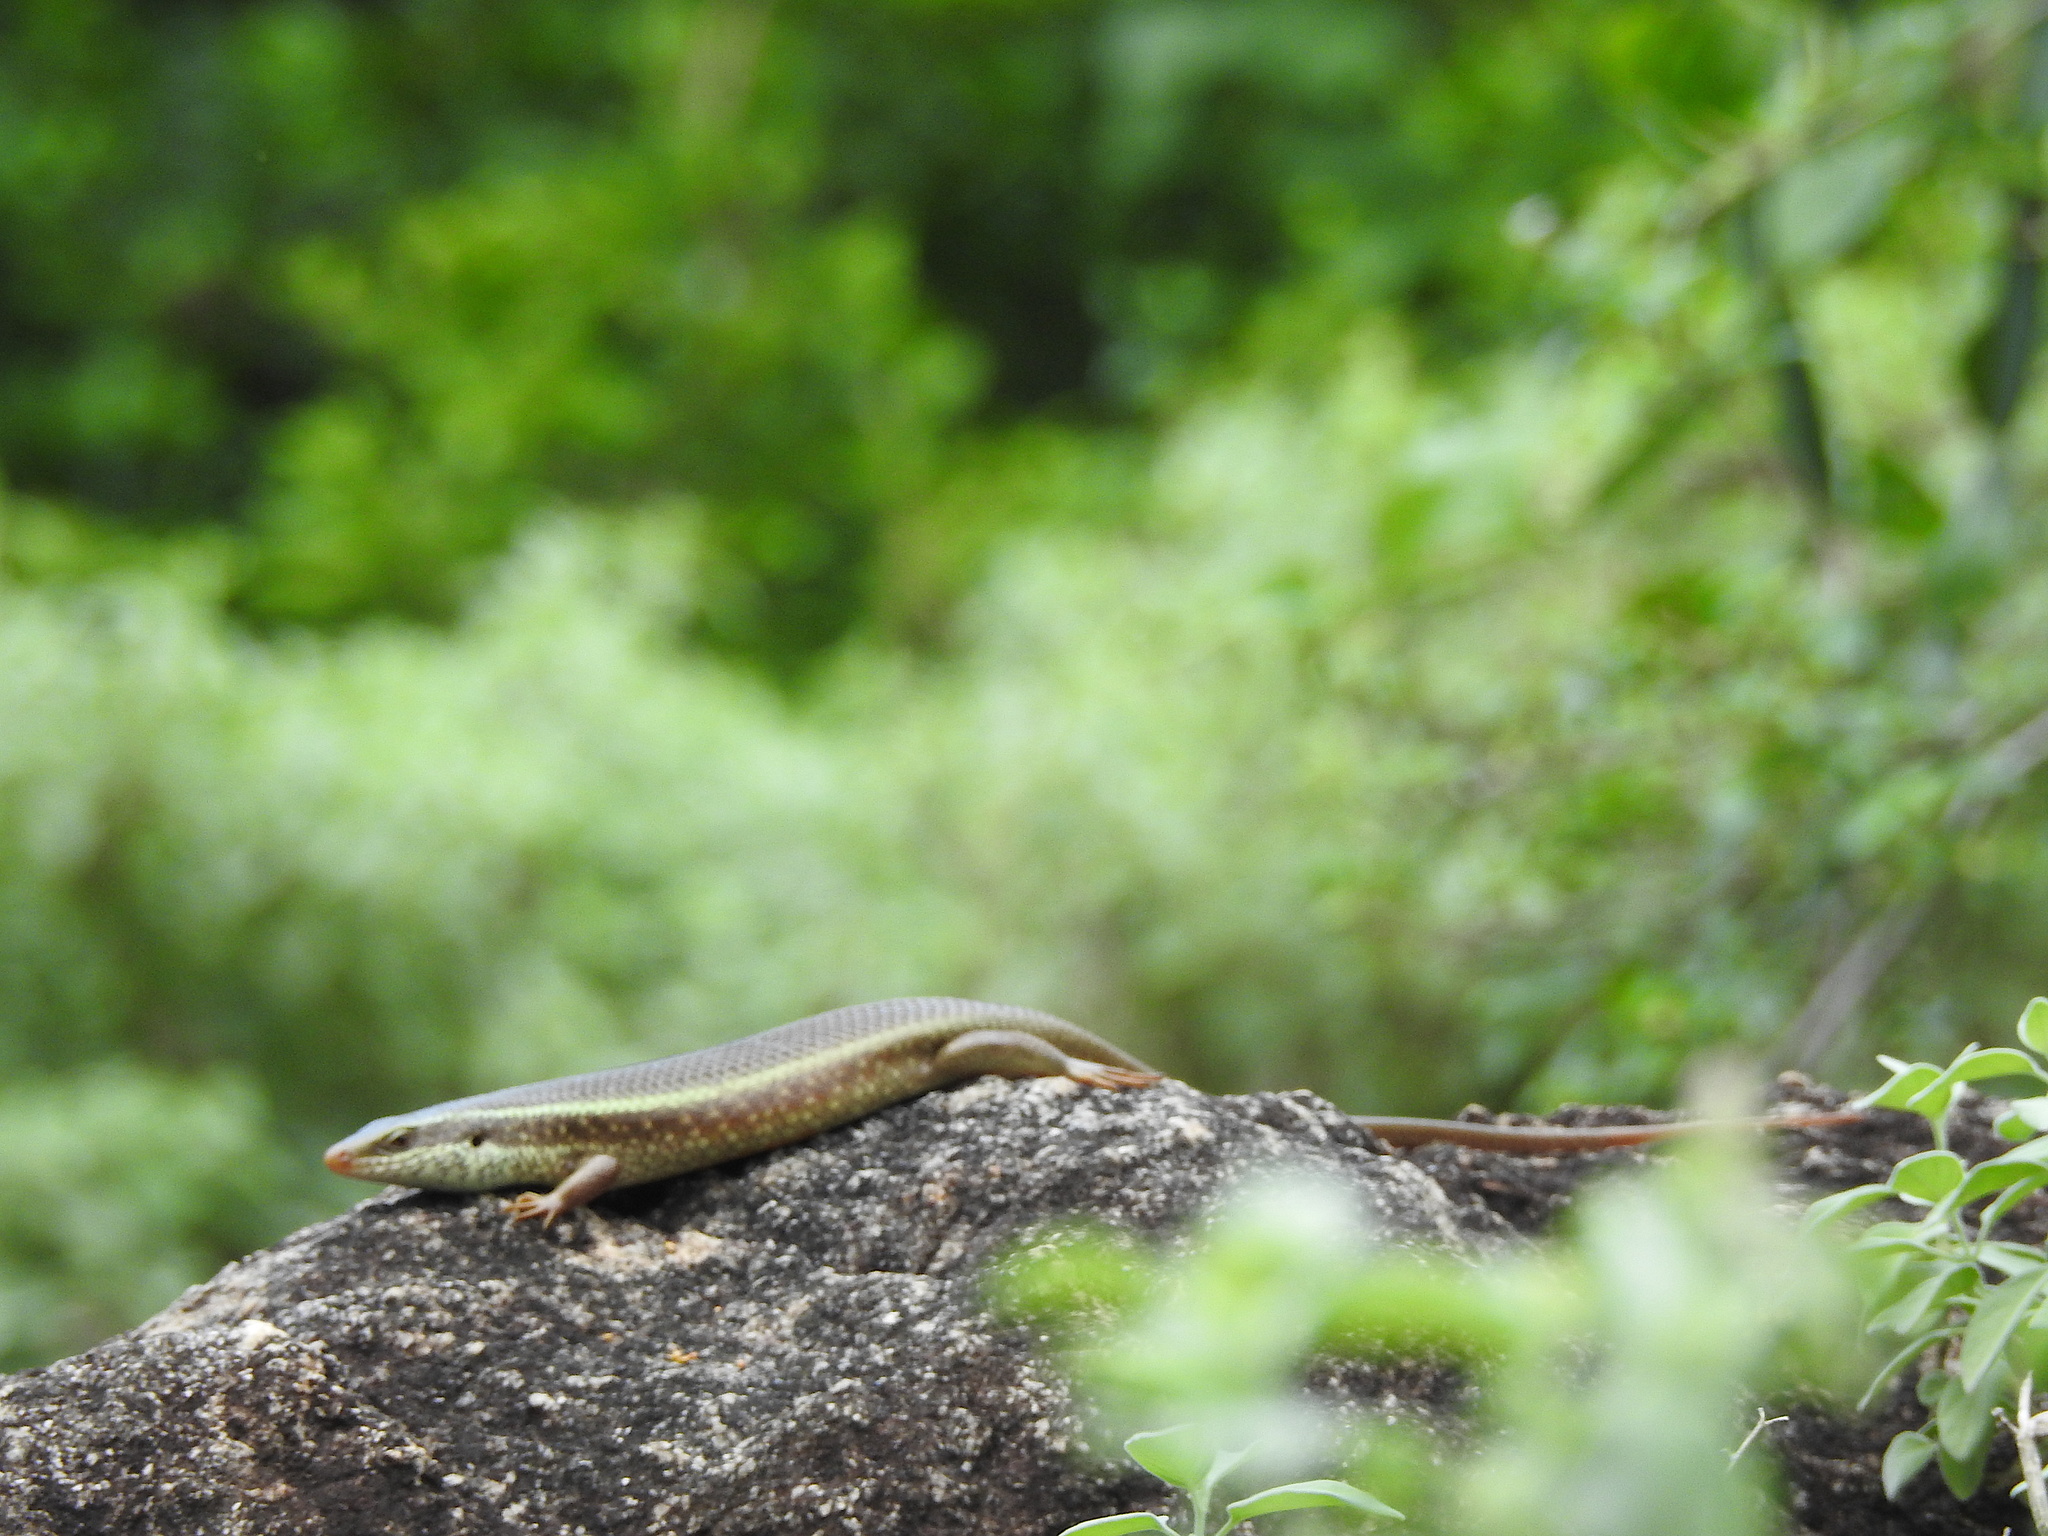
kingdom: Animalia
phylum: Chordata
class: Squamata
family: Scincidae
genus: Eutropis
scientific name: Eutropis carinata
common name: Keeled indian mabuya
